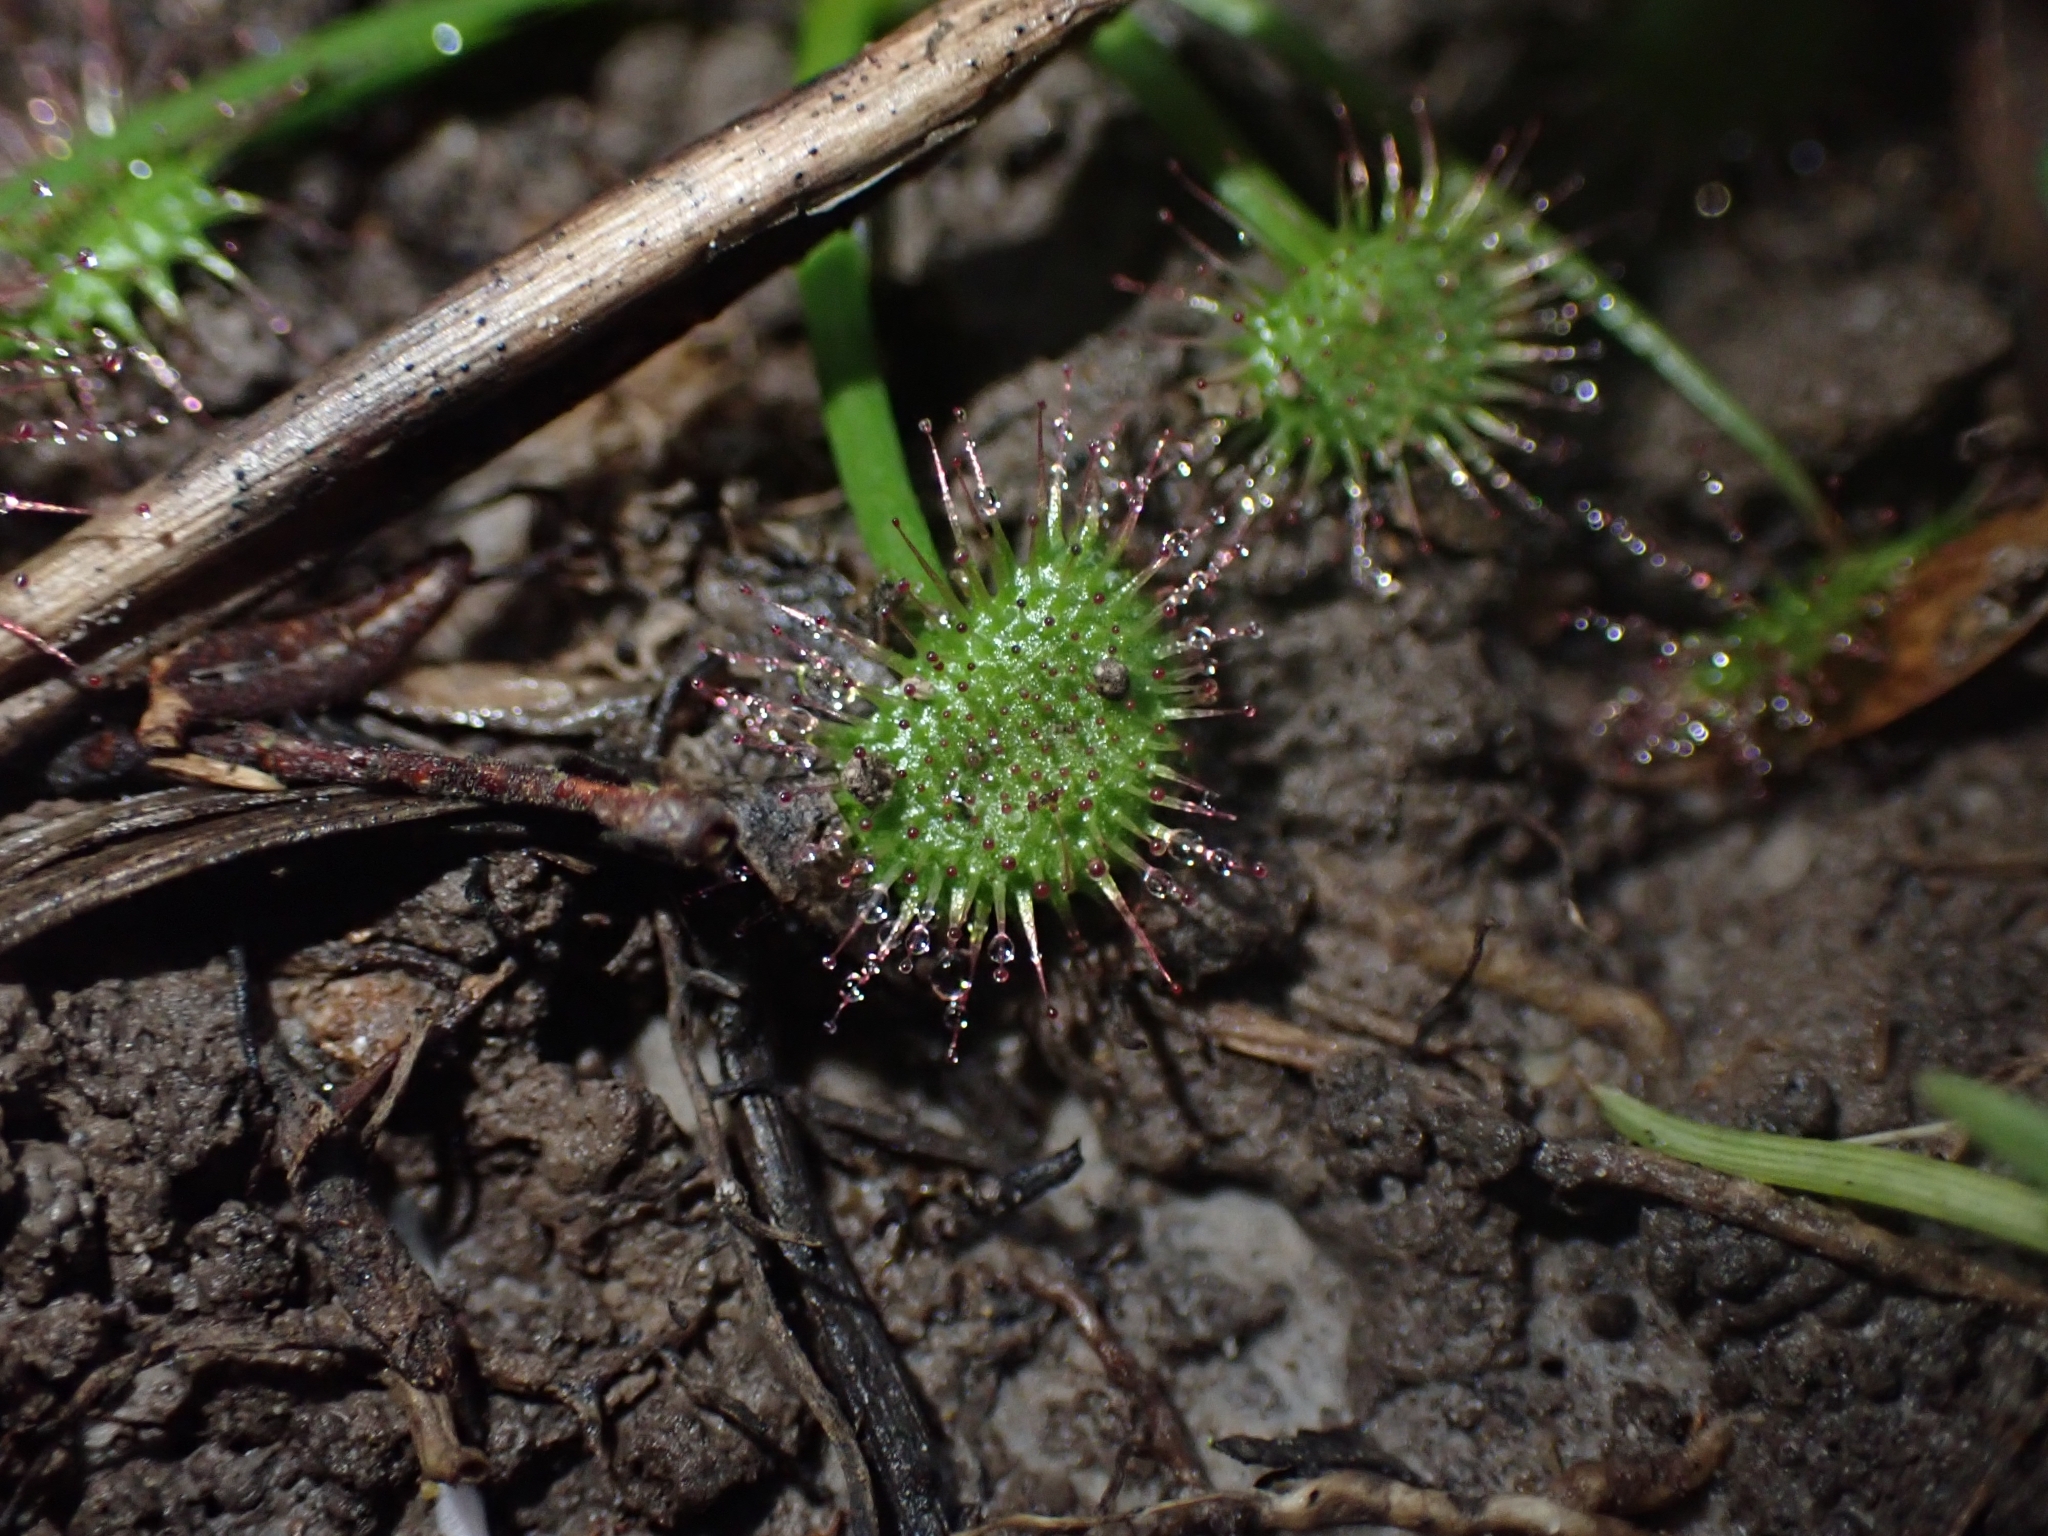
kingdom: Plantae
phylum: Tracheophyta
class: Magnoliopsida
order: Caryophyllales
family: Droseraceae
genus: Drosera
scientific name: Drosera peltata
